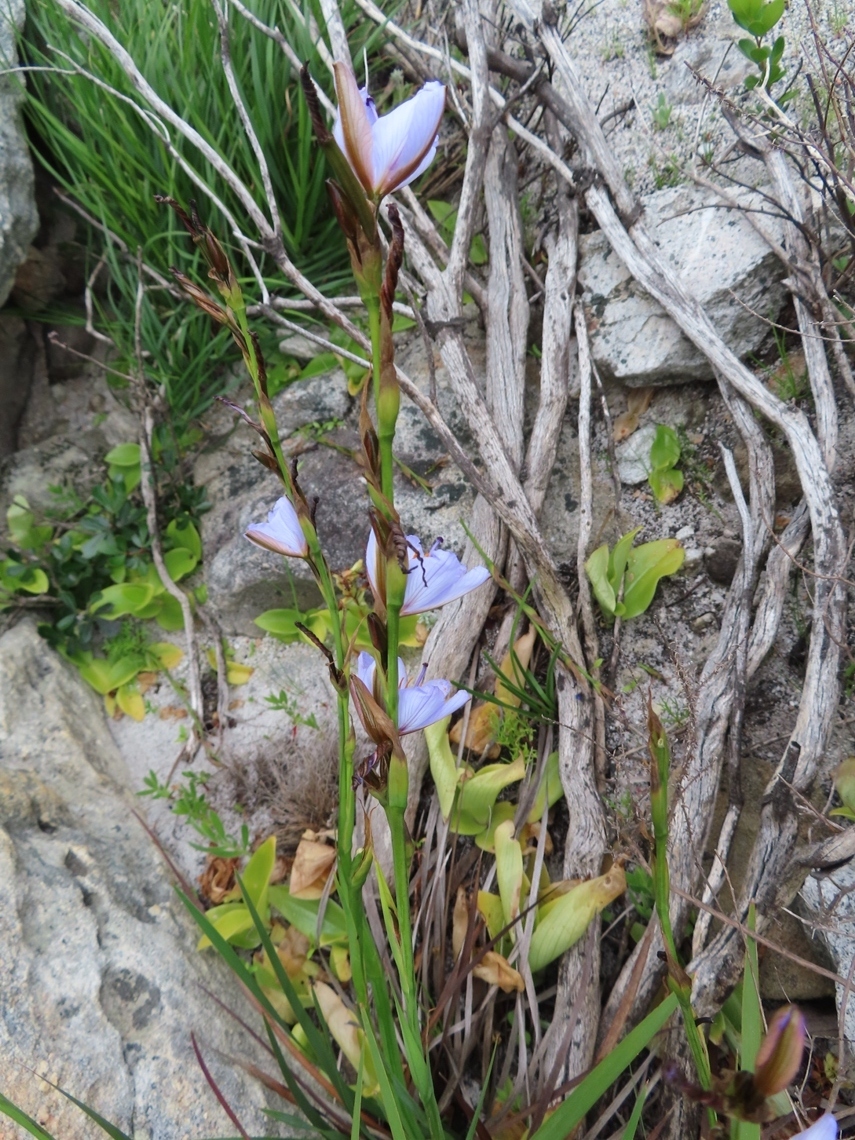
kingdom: Plantae
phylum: Tracheophyta
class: Liliopsida
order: Asparagales
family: Iridaceae
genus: Aristea
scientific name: Aristea spiralis
